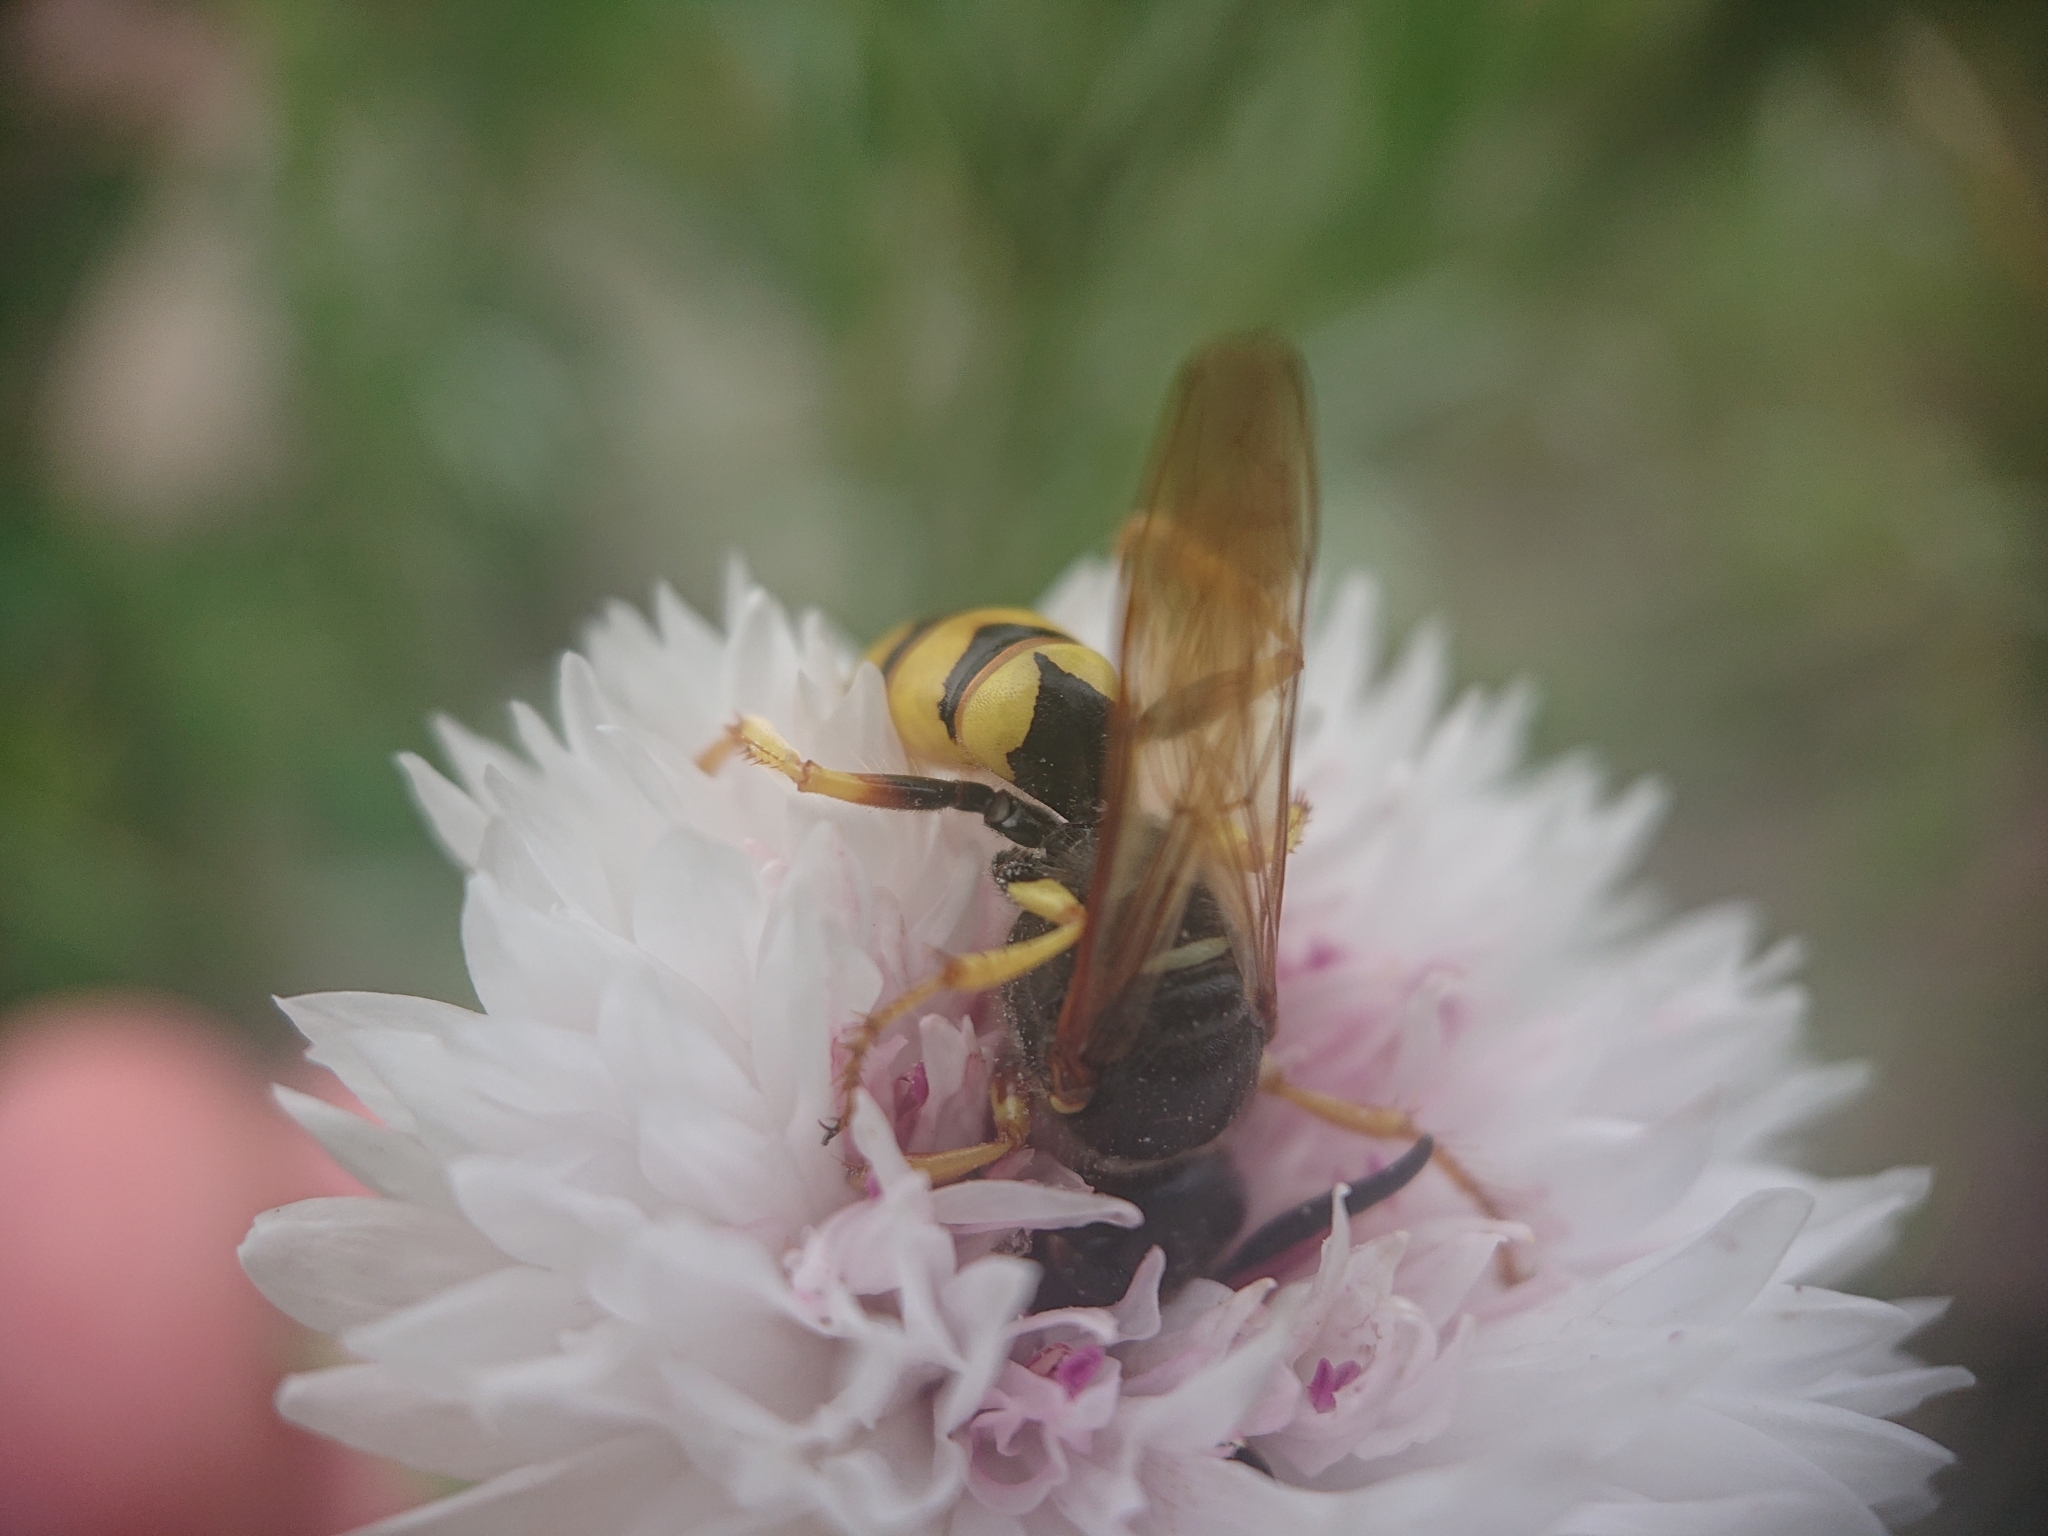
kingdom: Animalia
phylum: Arthropoda
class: Insecta
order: Hymenoptera
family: Crabronidae
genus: Philanthus
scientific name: Philanthus triangulum
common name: Bee wolf
